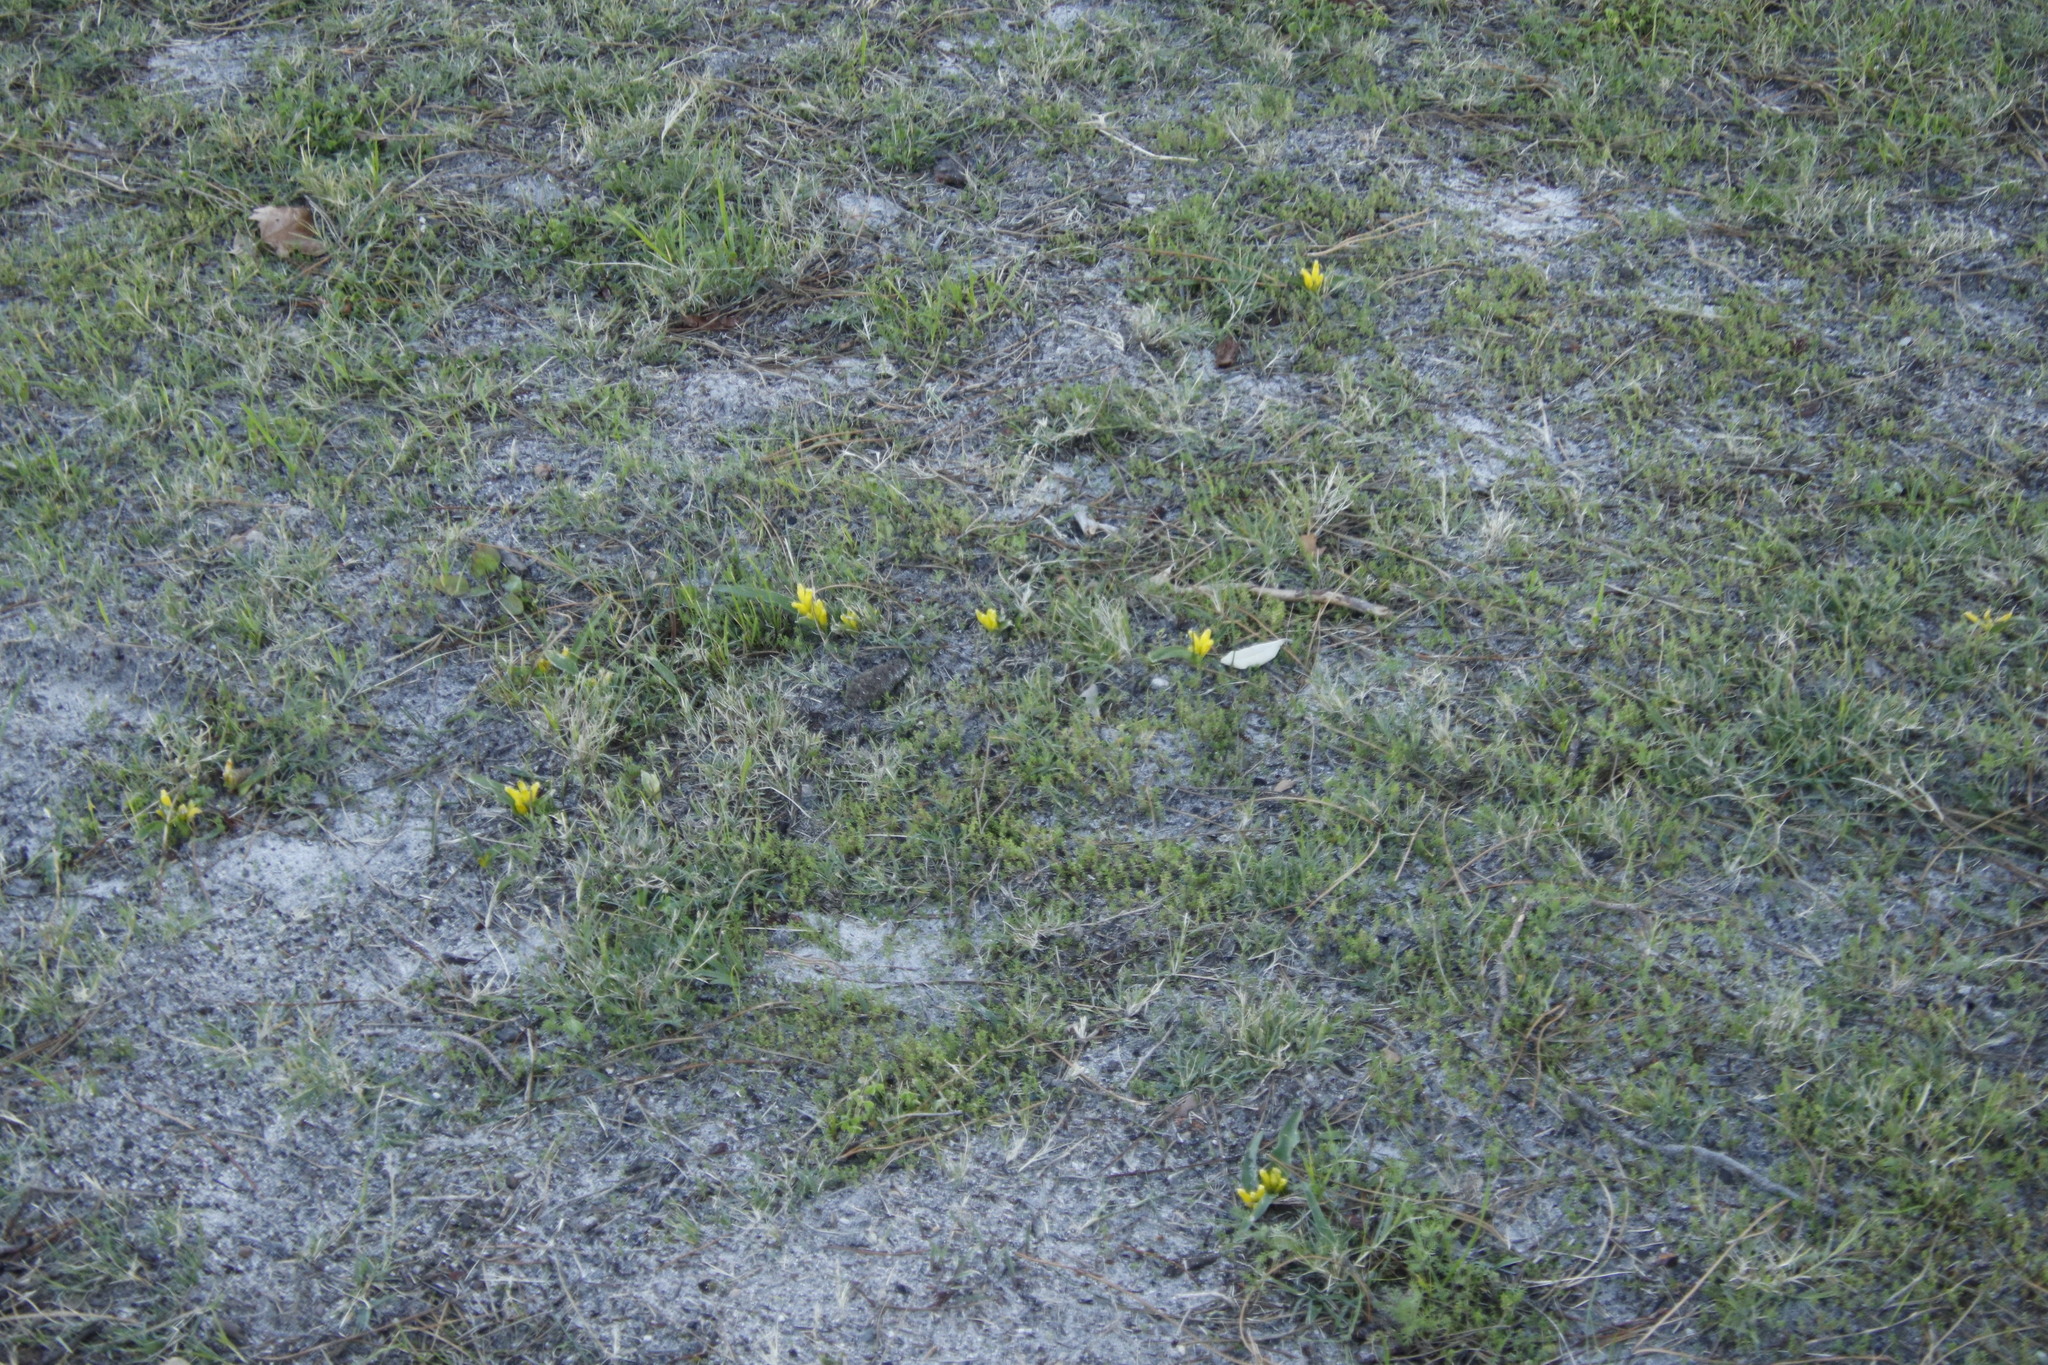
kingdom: Plantae
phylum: Tracheophyta
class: Liliopsida
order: Asparagales
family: Asparagaceae
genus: Lachenalia
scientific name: Lachenalia reflexa
